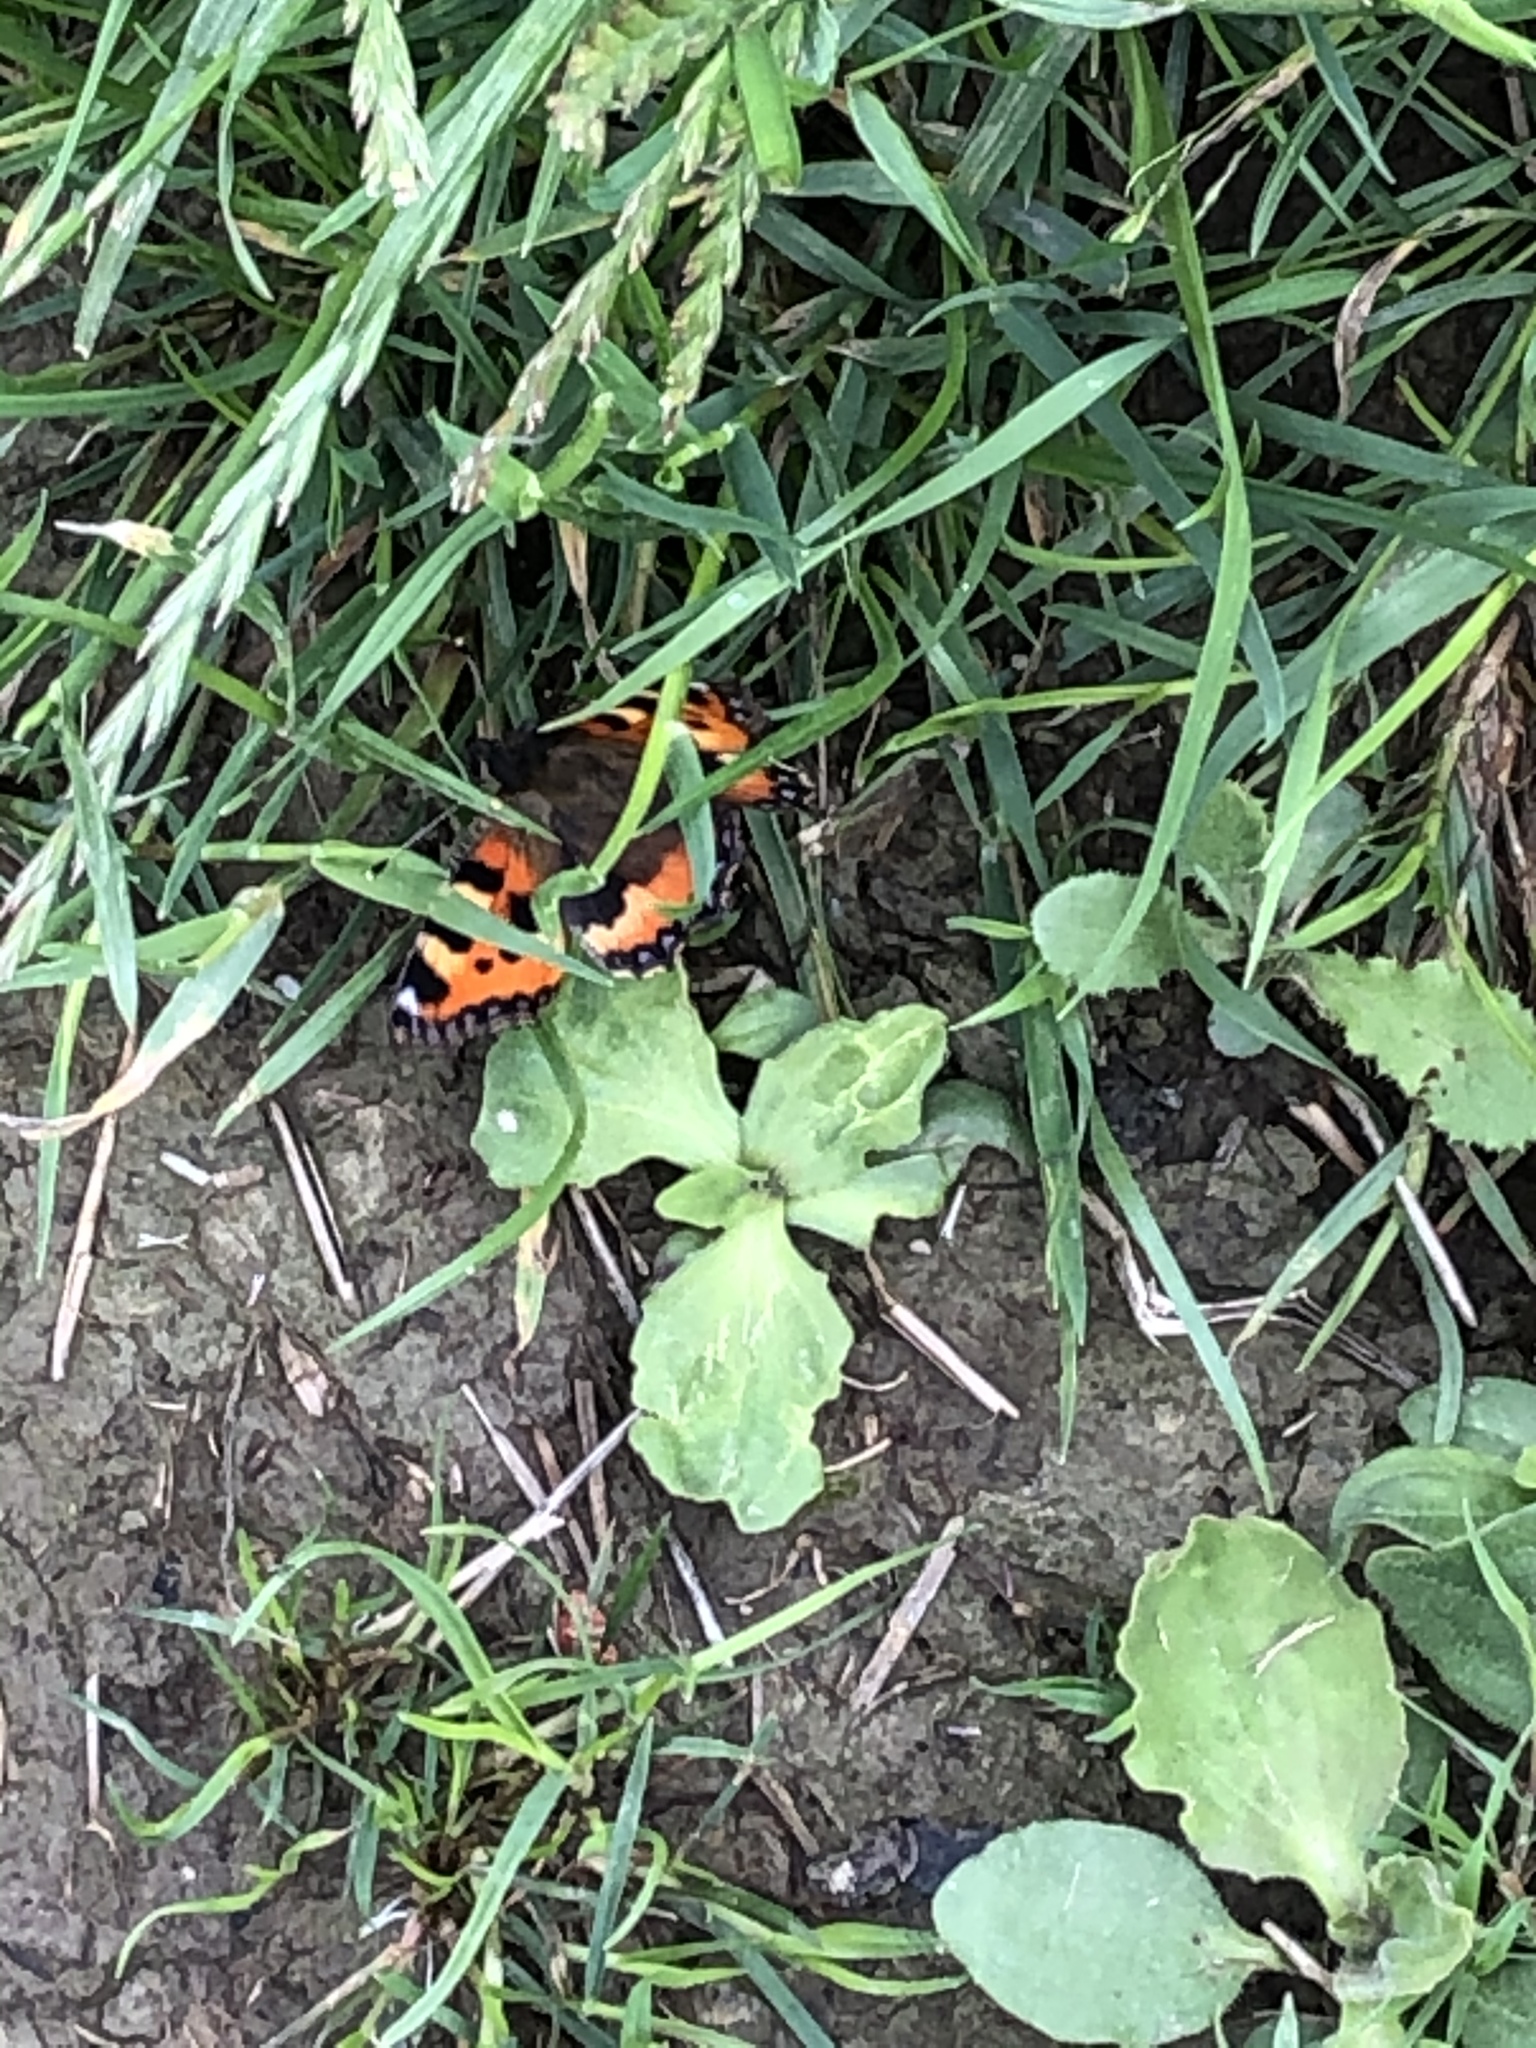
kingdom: Animalia
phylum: Arthropoda
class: Insecta
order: Lepidoptera
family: Nymphalidae
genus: Aglais
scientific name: Aglais urticae
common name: Small tortoiseshell
